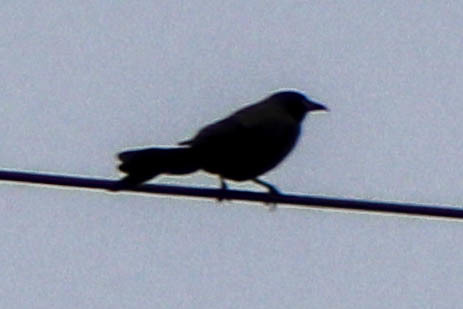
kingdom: Animalia
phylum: Chordata
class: Aves
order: Passeriformes
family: Icteridae
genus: Quiscalus
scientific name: Quiscalus quiscula
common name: Common grackle
